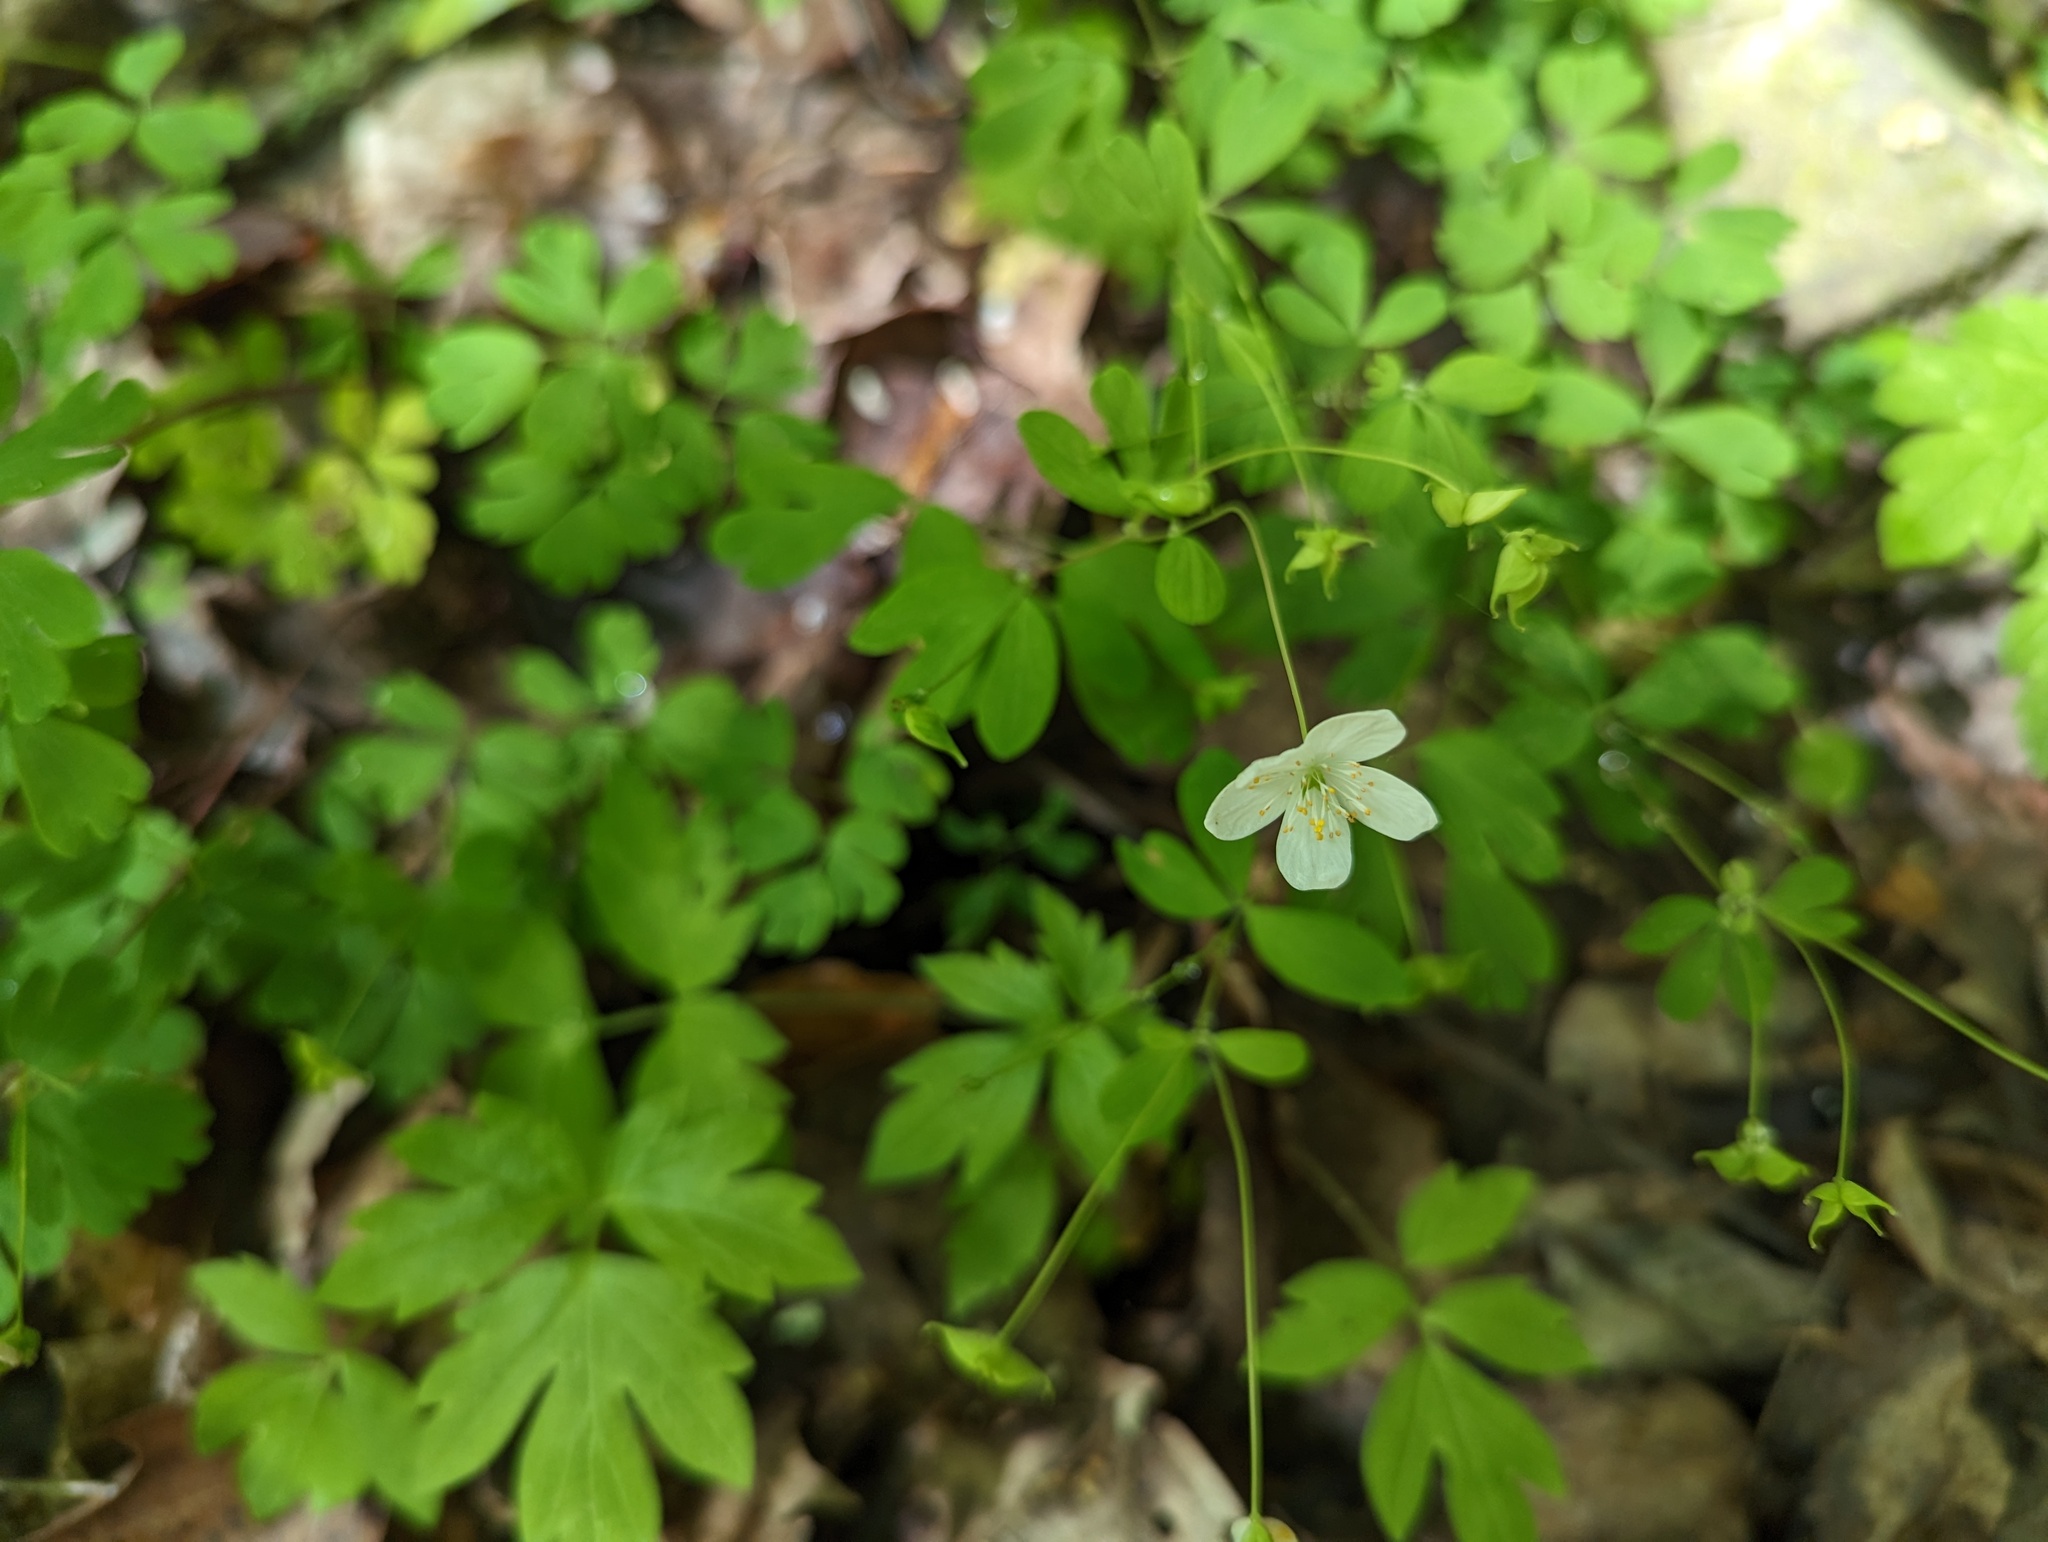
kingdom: Plantae
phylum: Tracheophyta
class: Magnoliopsida
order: Ranunculales
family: Ranunculaceae
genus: Enemion
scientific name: Enemion biternatum
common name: Eastern false rue-anemone
